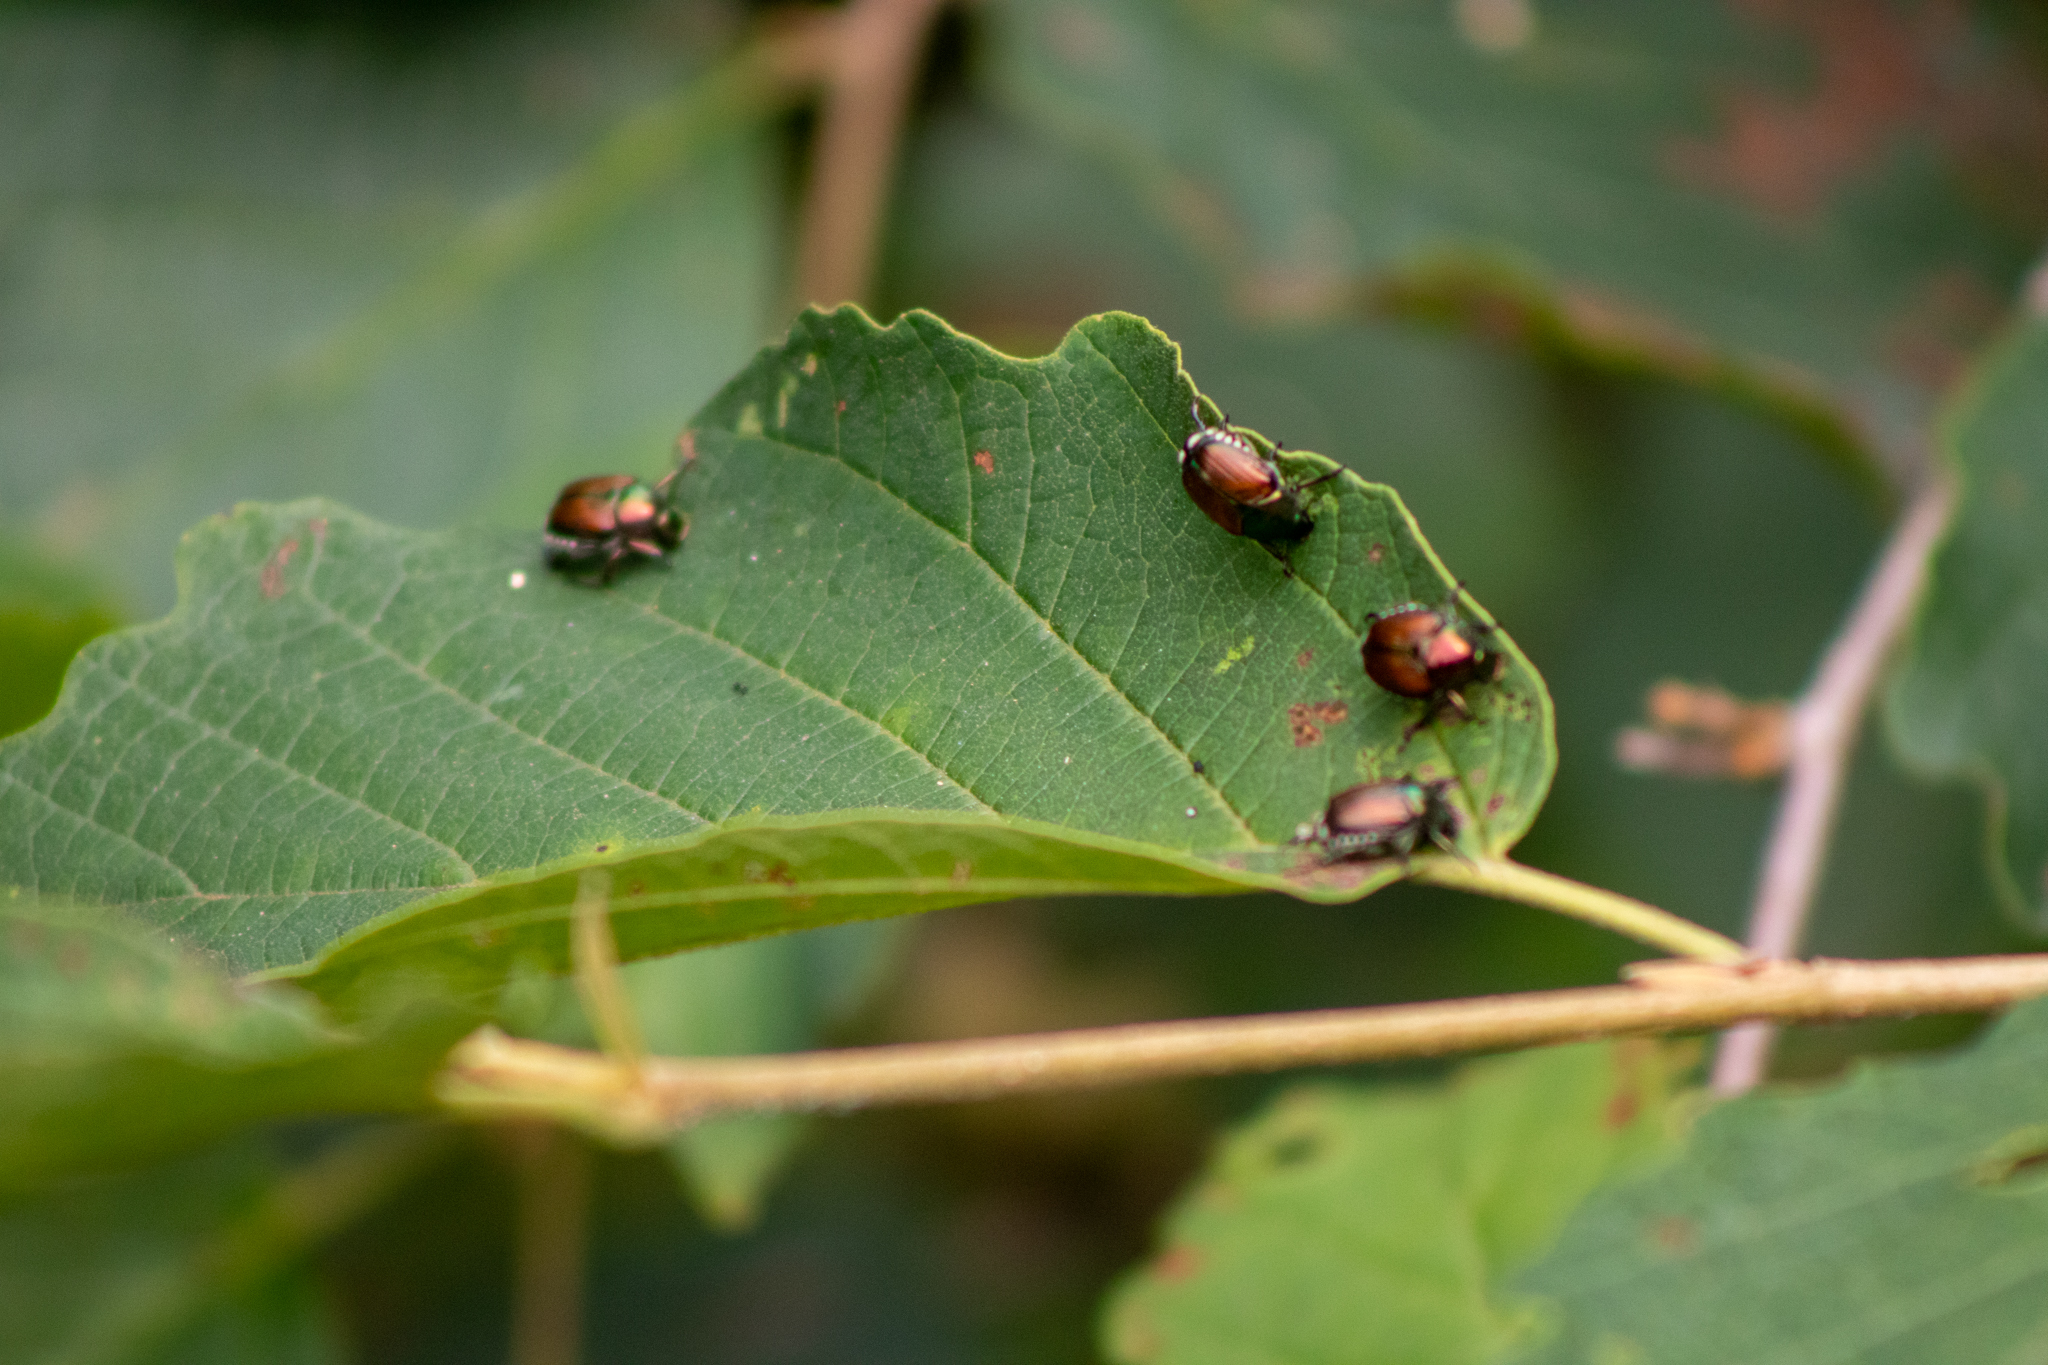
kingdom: Animalia
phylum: Arthropoda
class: Insecta
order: Coleoptera
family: Scarabaeidae
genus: Popillia
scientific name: Popillia japonica
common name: Japanese beetle
